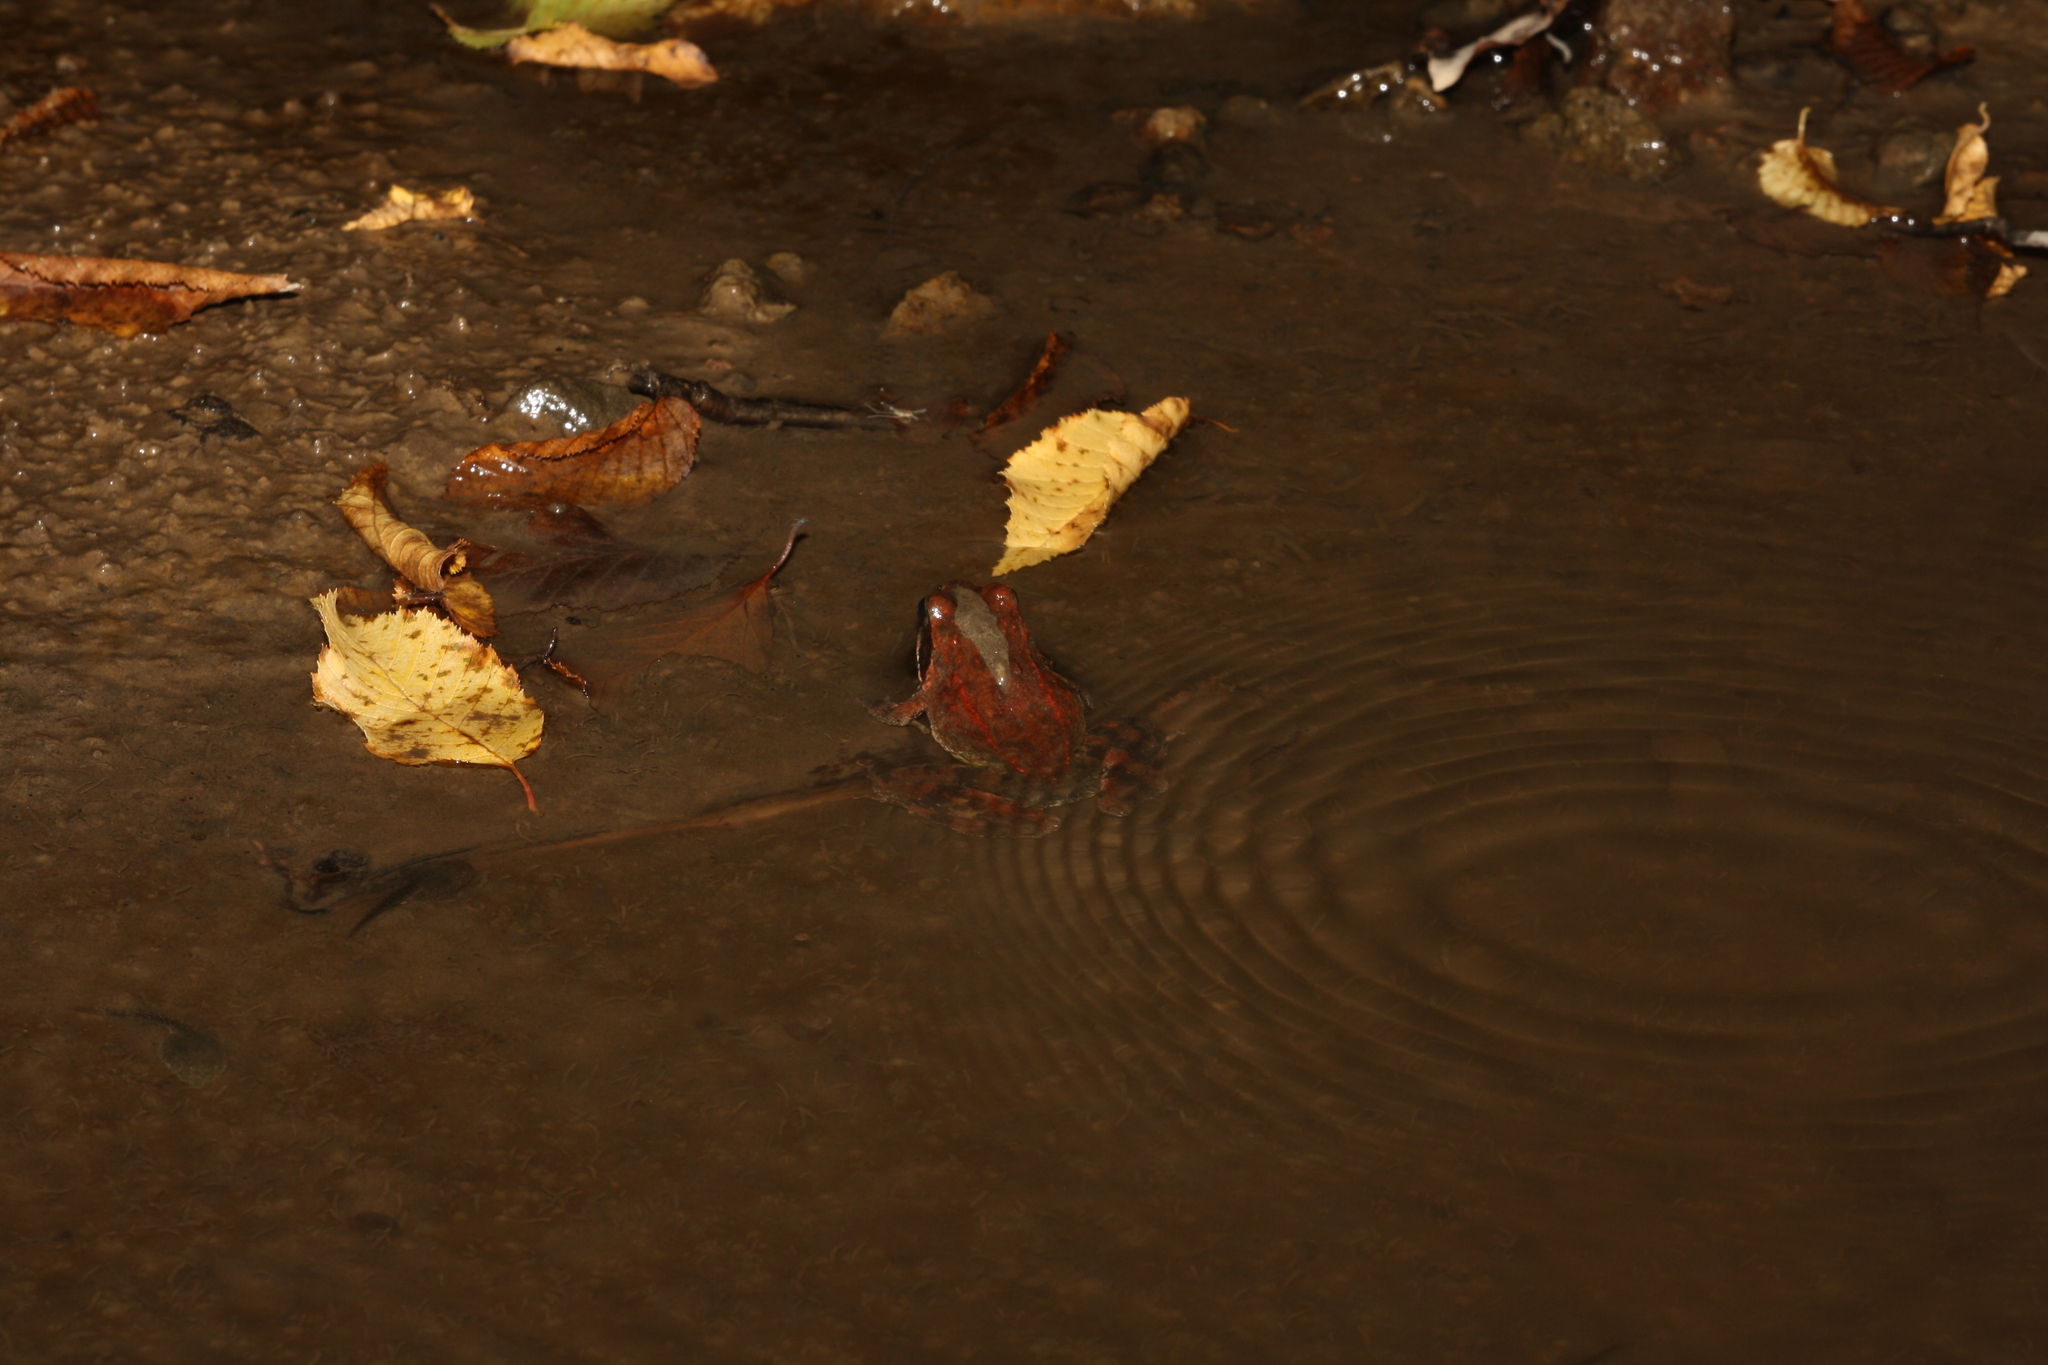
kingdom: Animalia
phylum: Chordata
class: Amphibia
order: Anura
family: Ranidae
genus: Rana
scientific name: Rana graeca
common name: Greek stream frog
